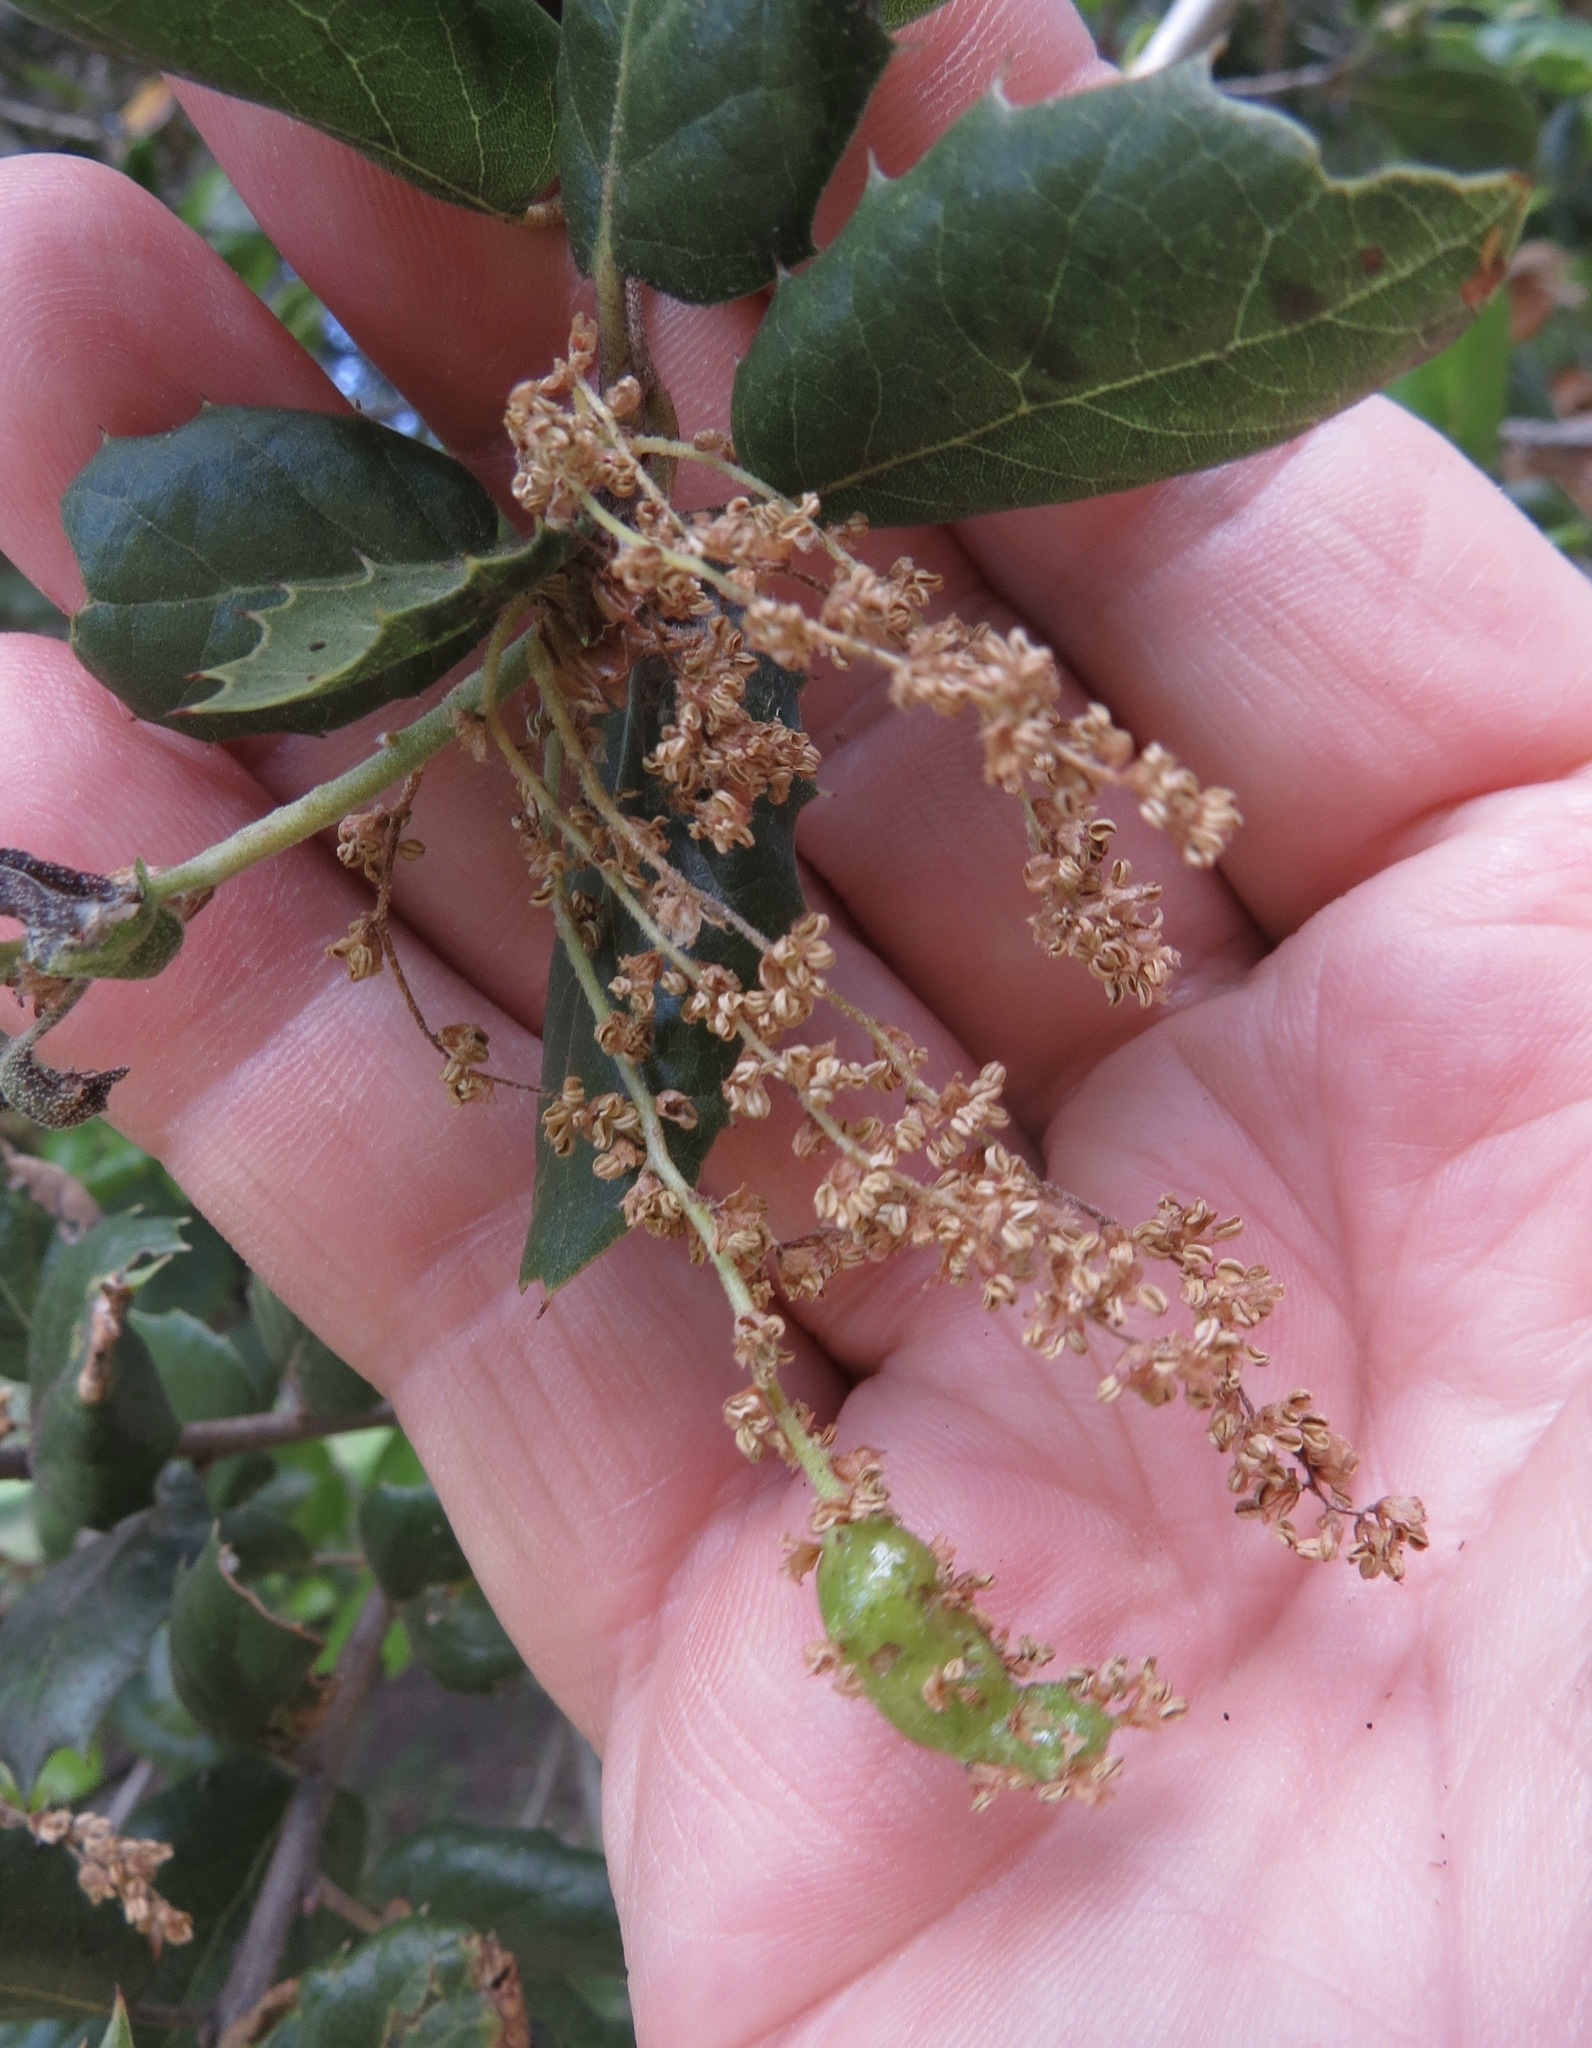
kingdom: Animalia
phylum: Arthropoda
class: Insecta
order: Hymenoptera
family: Cynipidae
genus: Callirhytis
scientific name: Callirhytis
